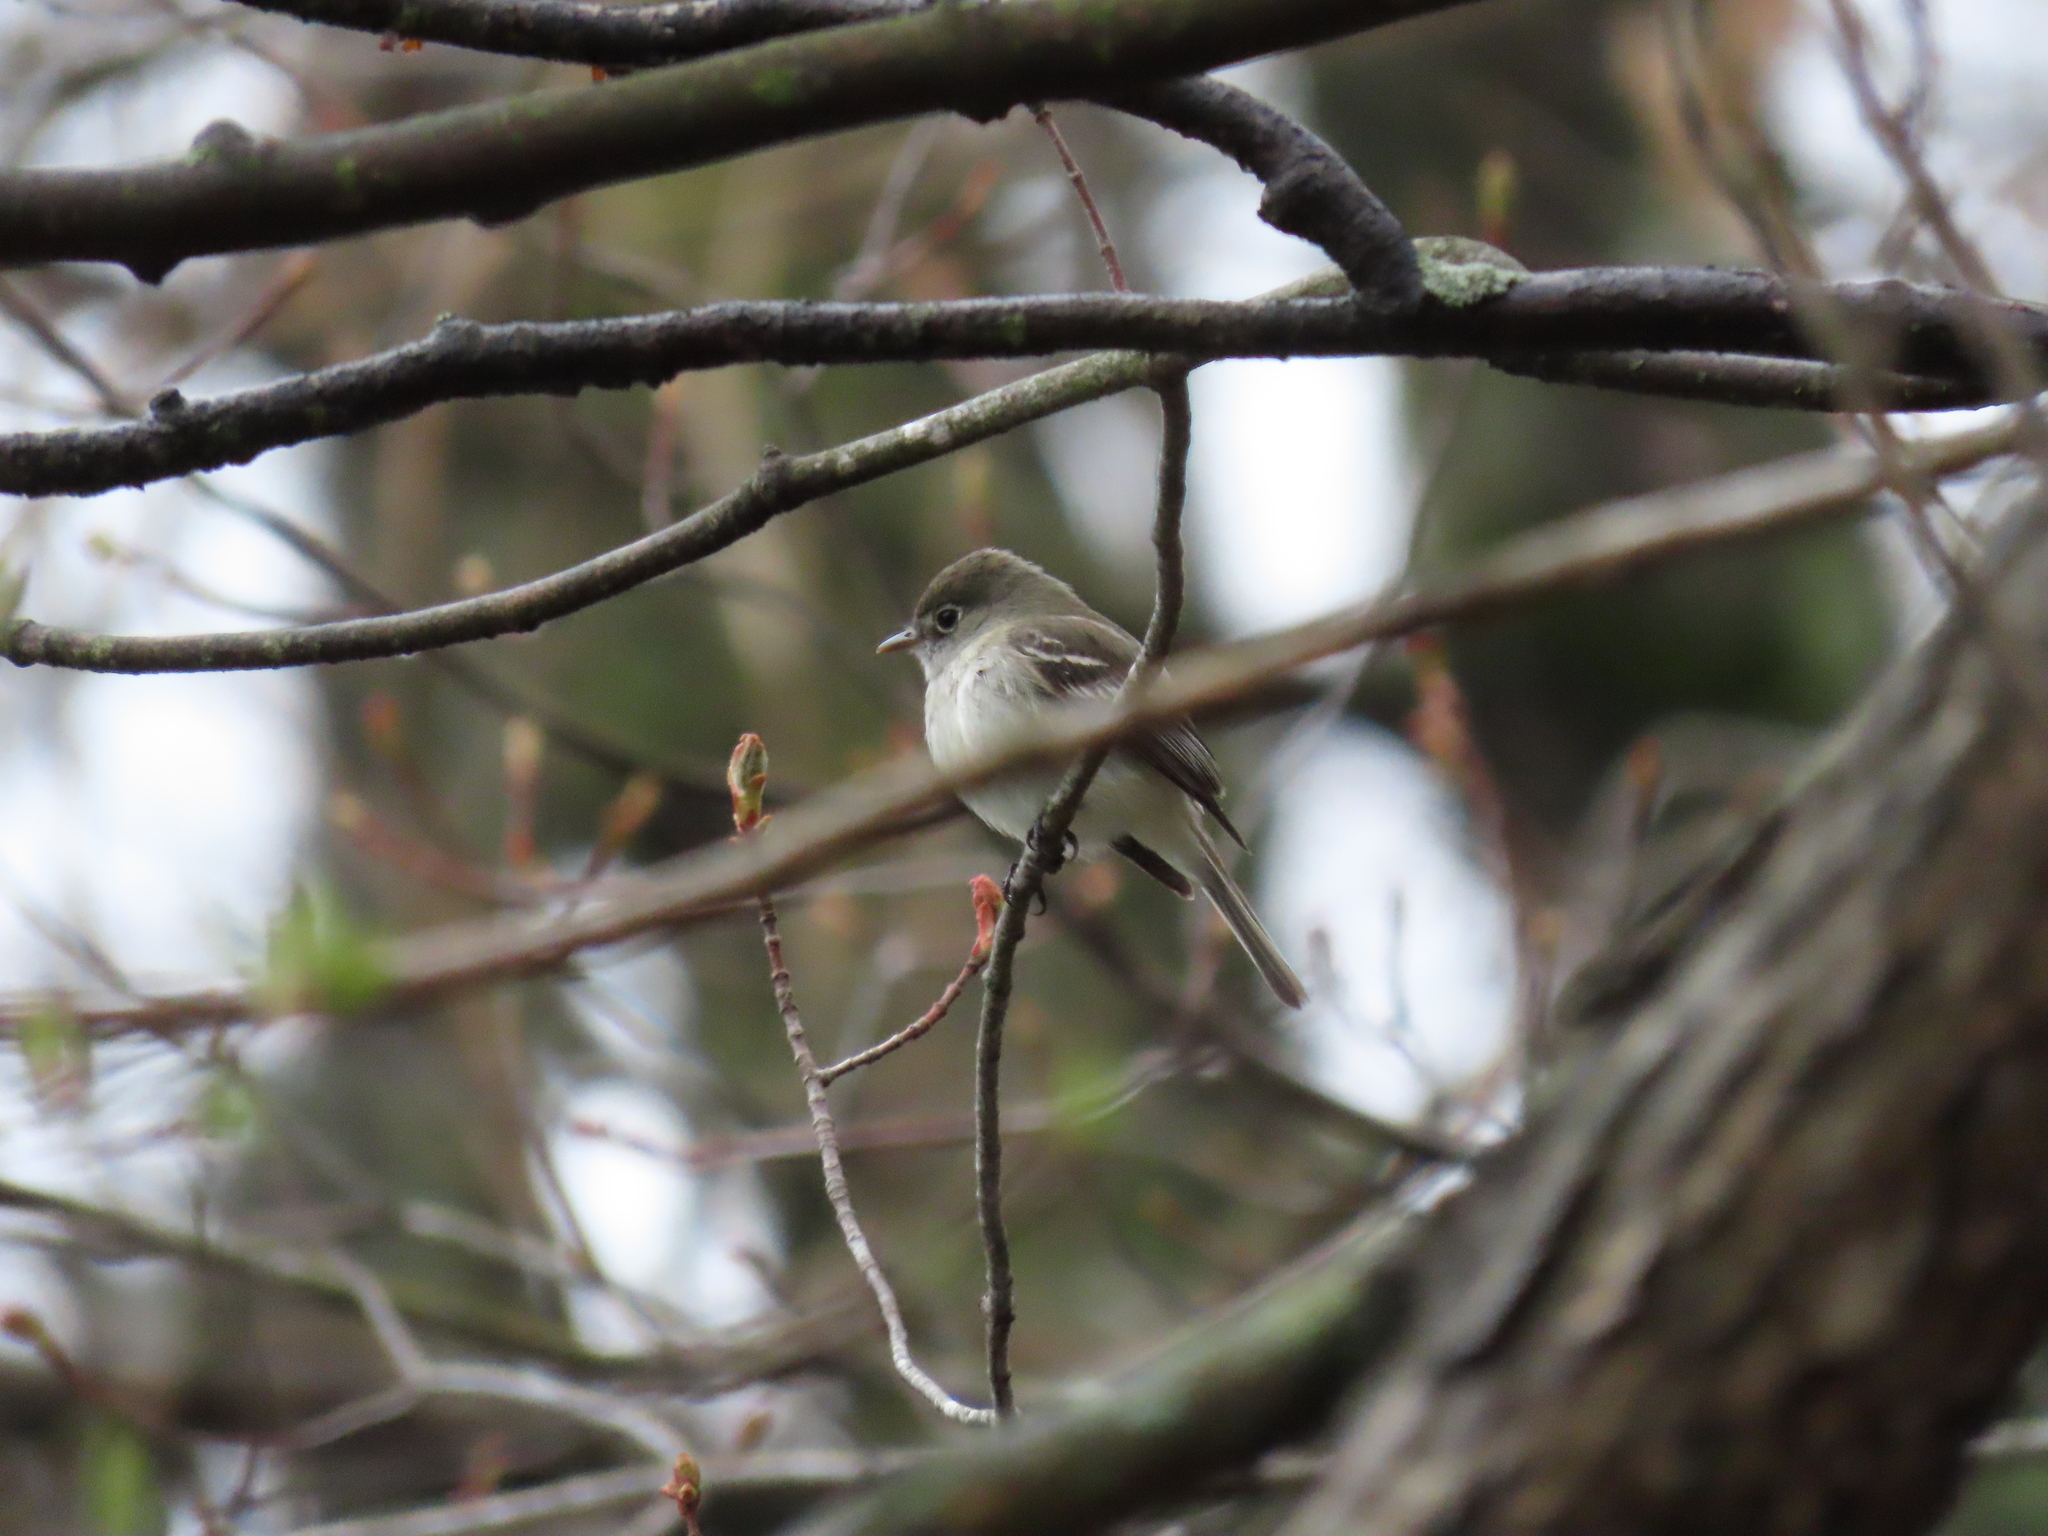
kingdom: Animalia
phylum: Chordata
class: Aves
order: Passeriformes
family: Tyrannidae
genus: Empidonax
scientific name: Empidonax minimus
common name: Least flycatcher
